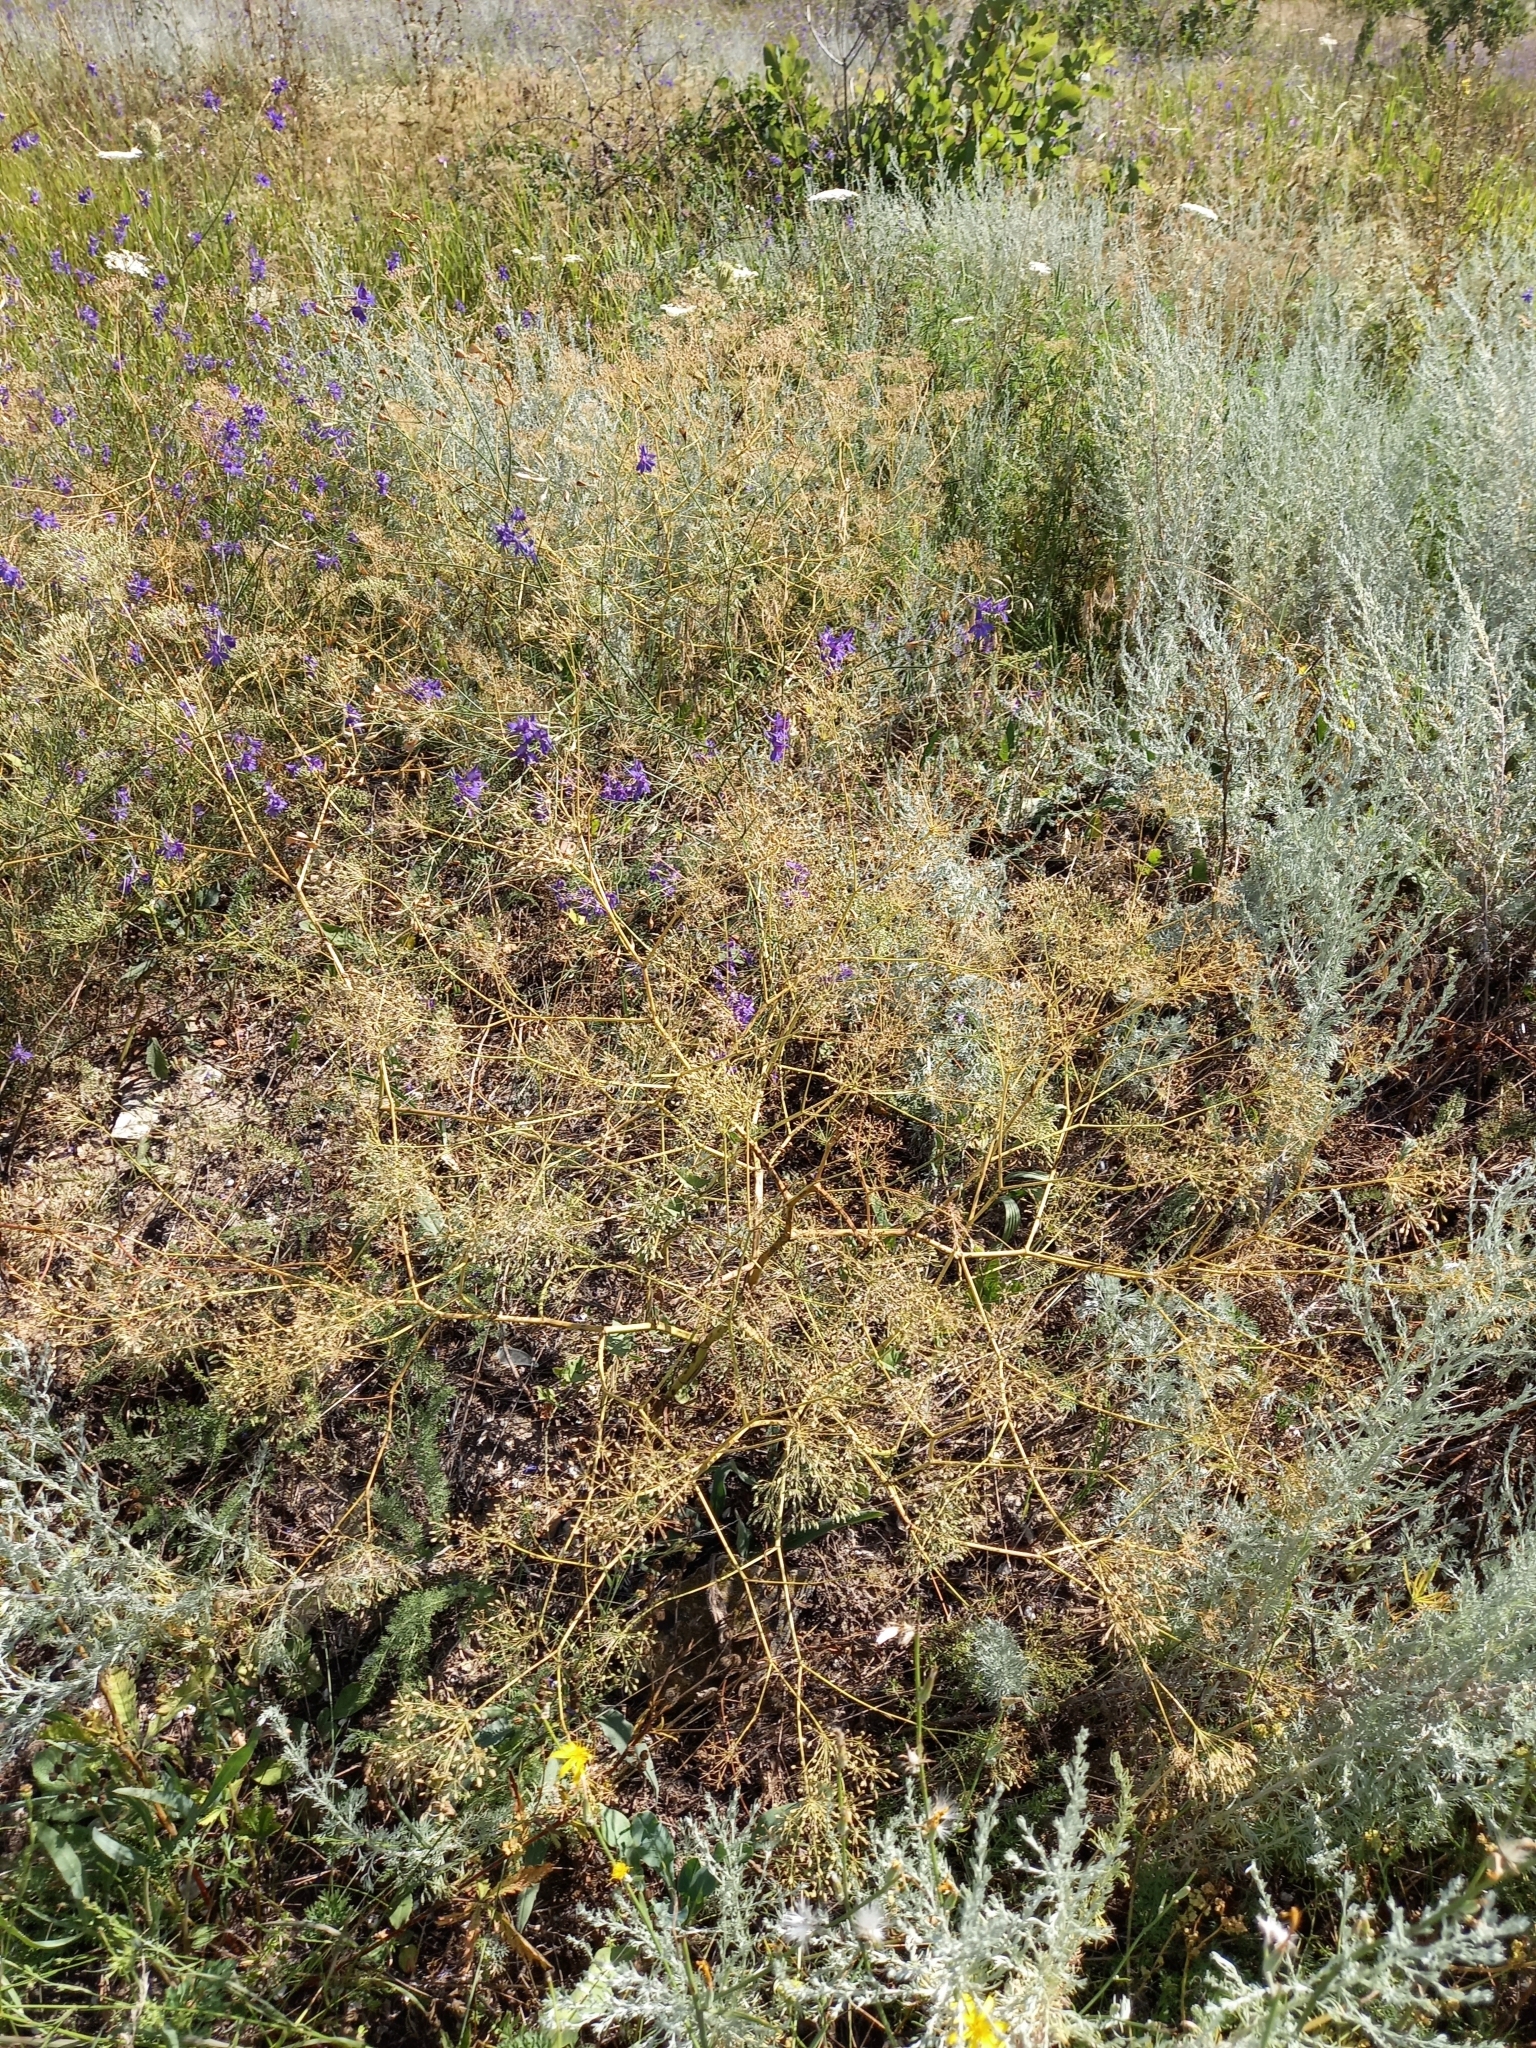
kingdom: Plantae
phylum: Tracheophyta
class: Magnoliopsida
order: Apiales
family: Apiaceae
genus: Falcaria
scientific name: Falcaria vulgaris
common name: Longleaf
